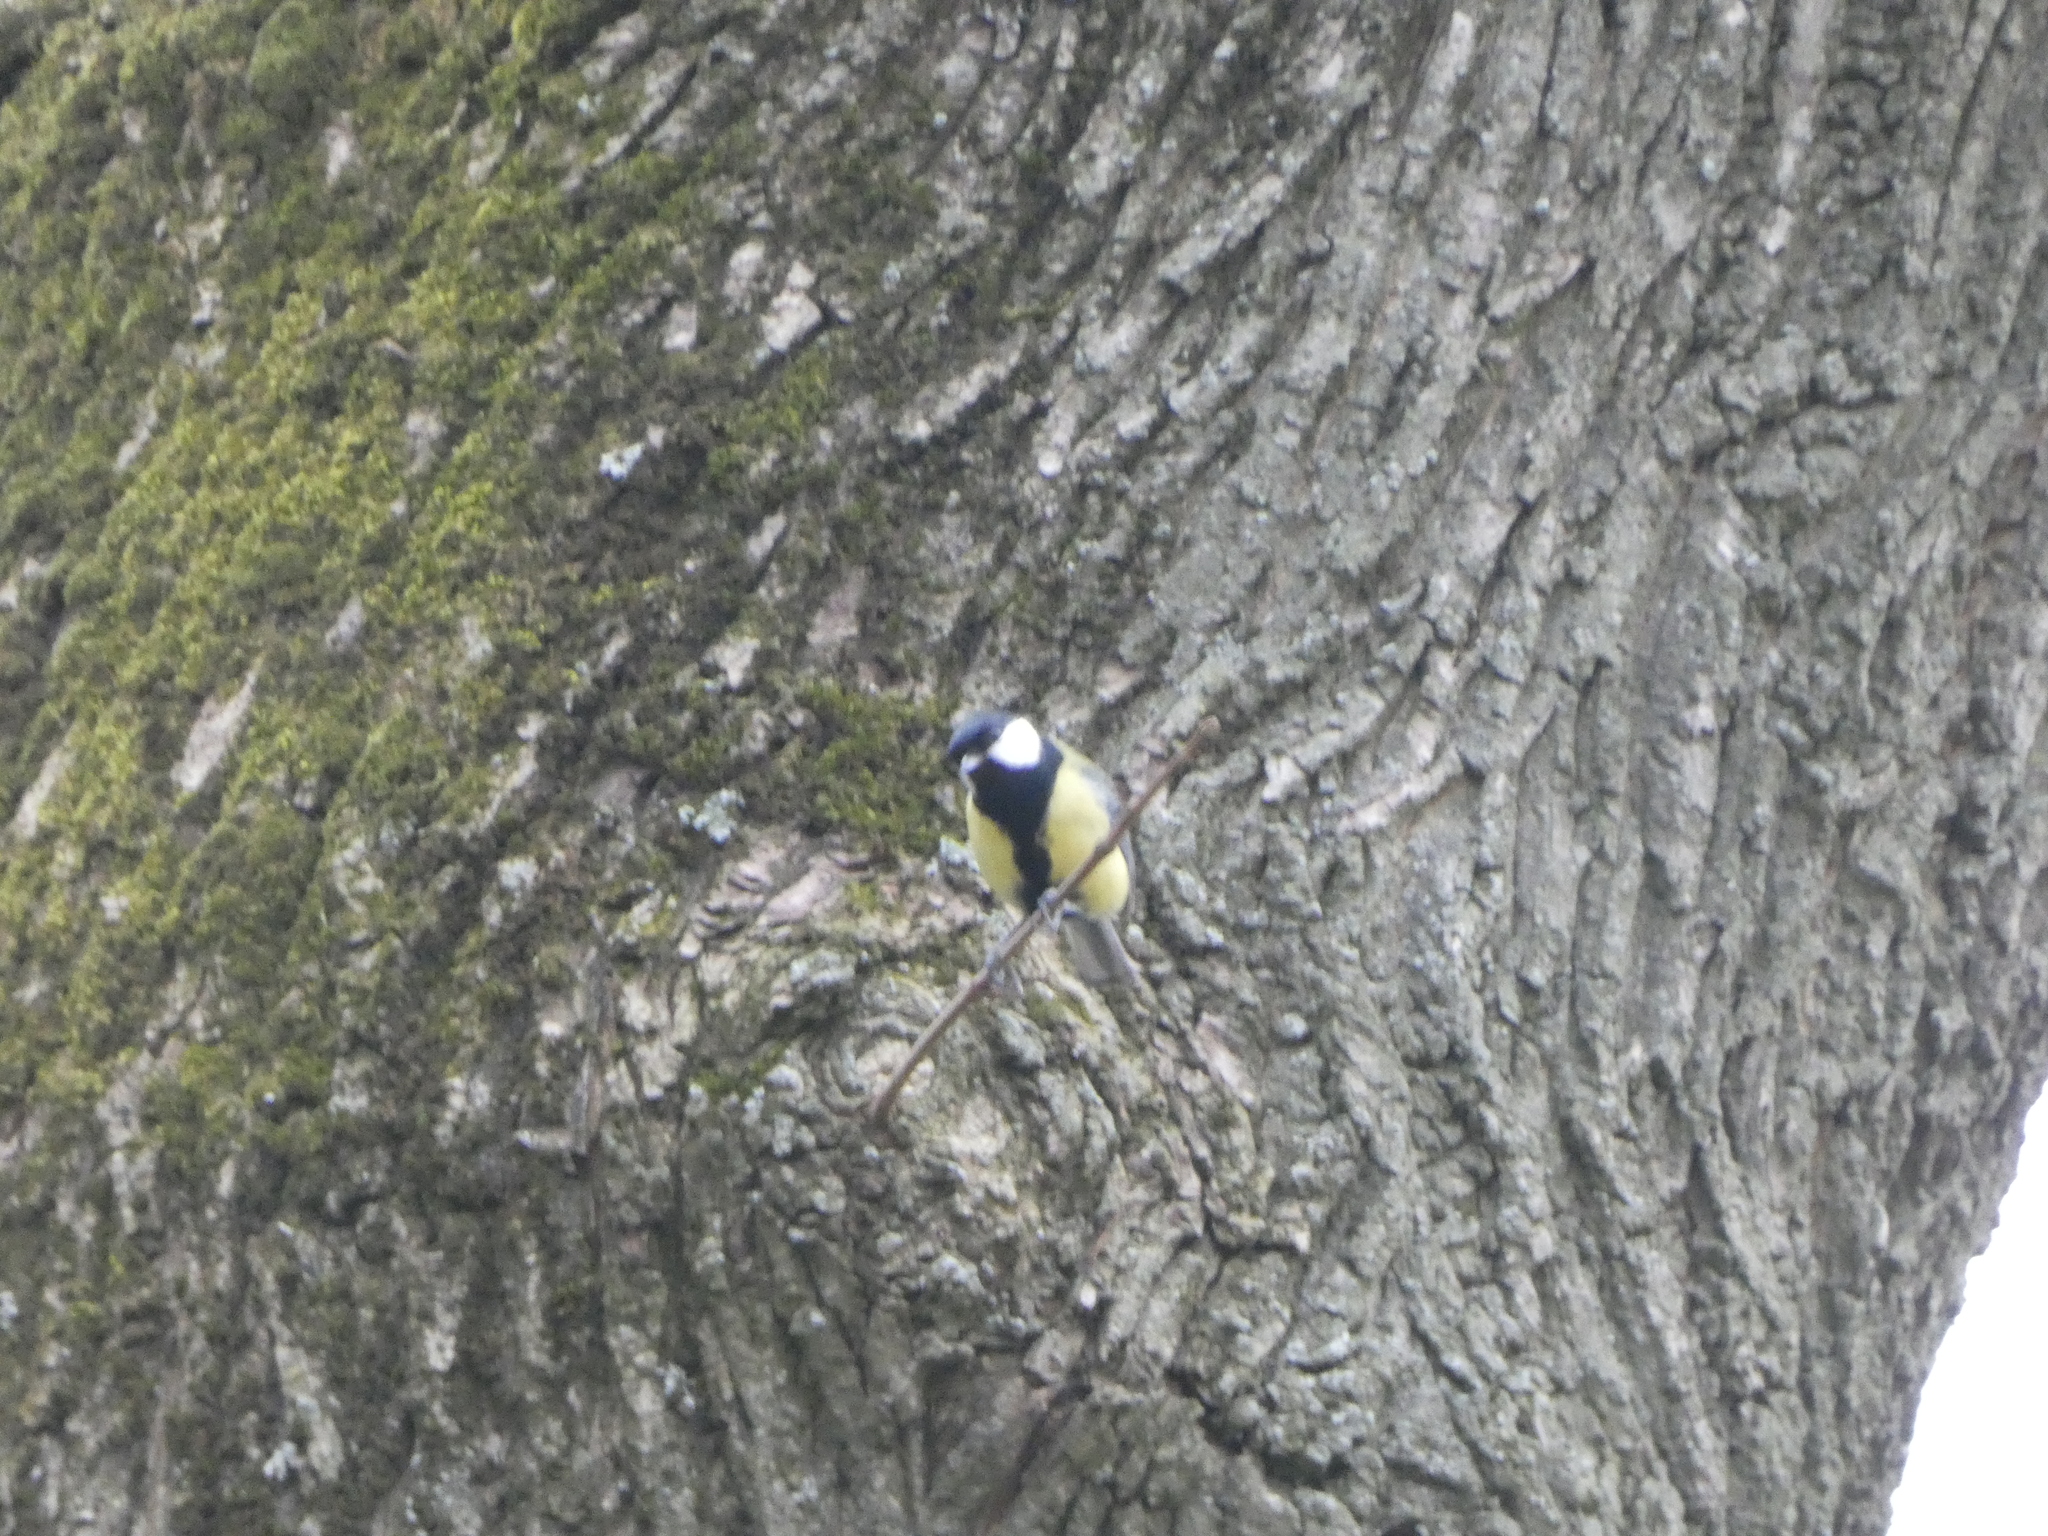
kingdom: Animalia
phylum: Chordata
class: Aves
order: Passeriformes
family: Paridae
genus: Parus
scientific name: Parus major
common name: Great tit
